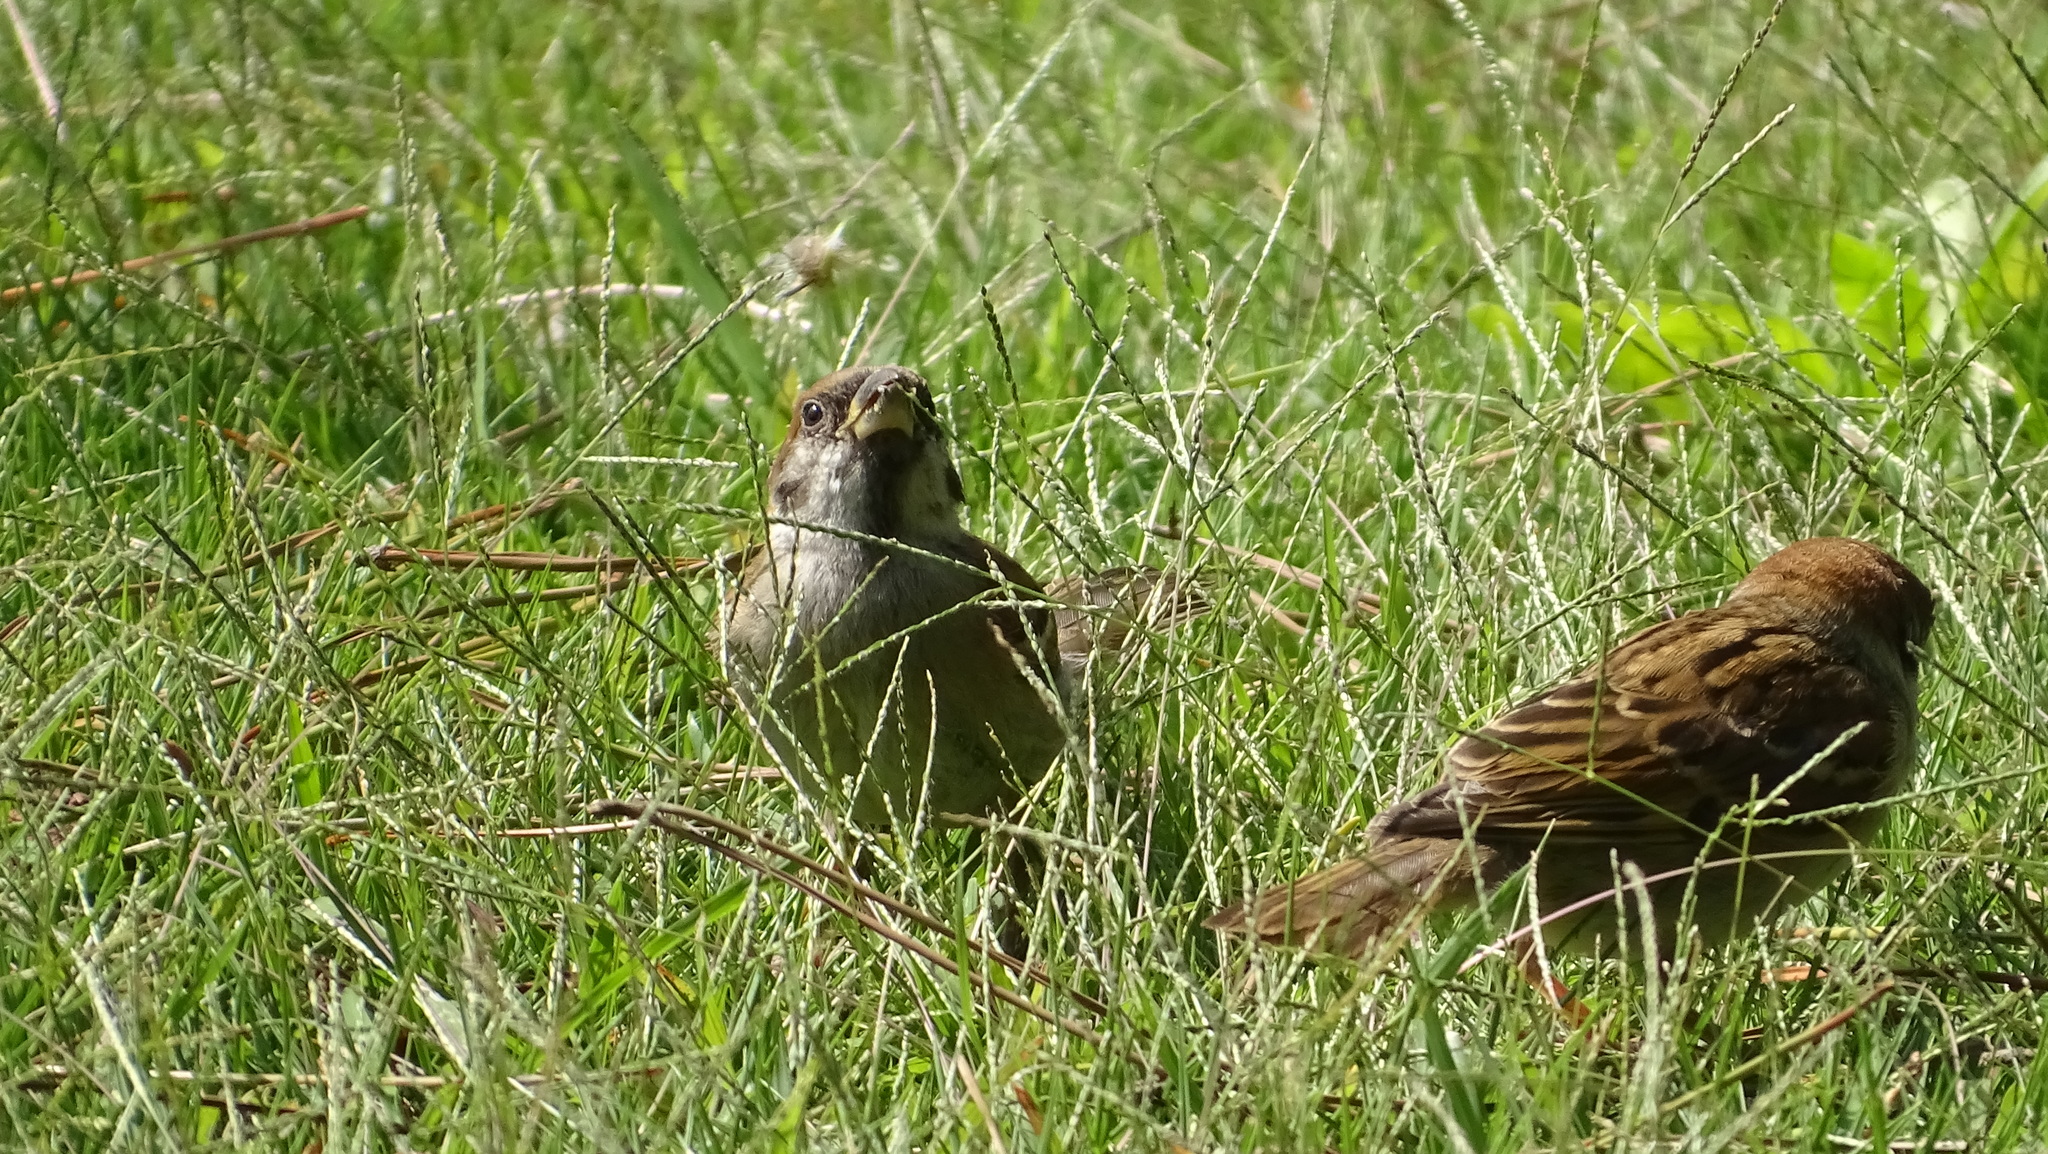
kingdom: Animalia
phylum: Chordata
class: Aves
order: Passeriformes
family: Passeridae
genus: Passer
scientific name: Passer montanus
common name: Eurasian tree sparrow
